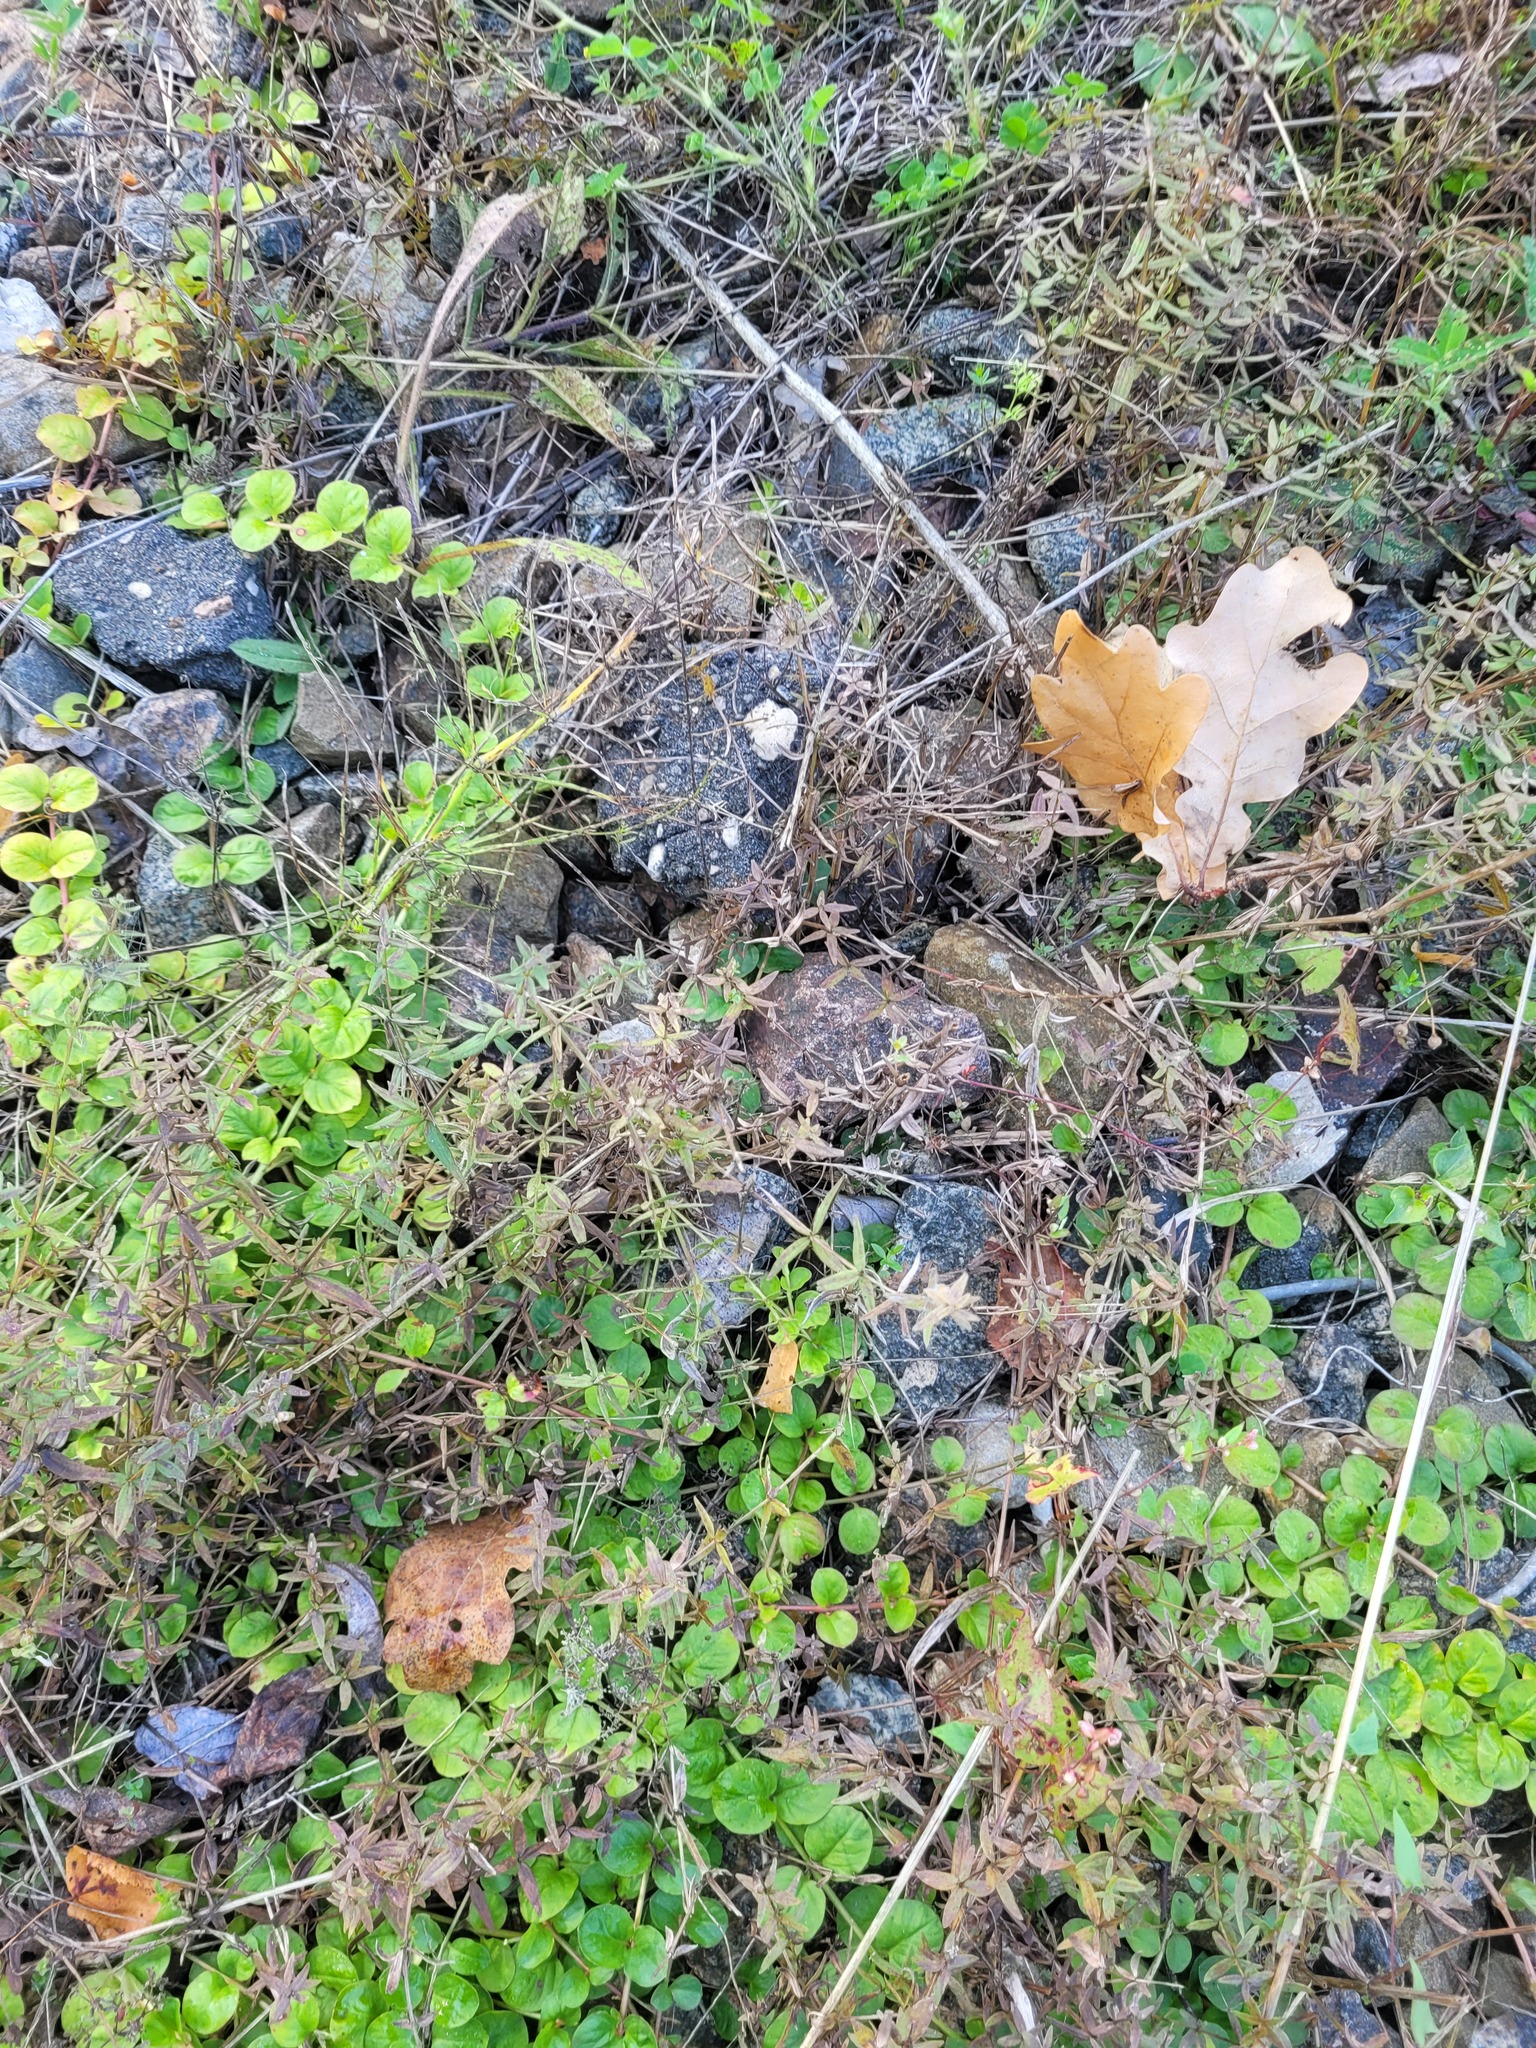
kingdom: Plantae
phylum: Tracheophyta
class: Magnoliopsida
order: Gentianales
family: Rubiaceae
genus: Galium
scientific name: Galium boreale
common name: Northern bedstraw
